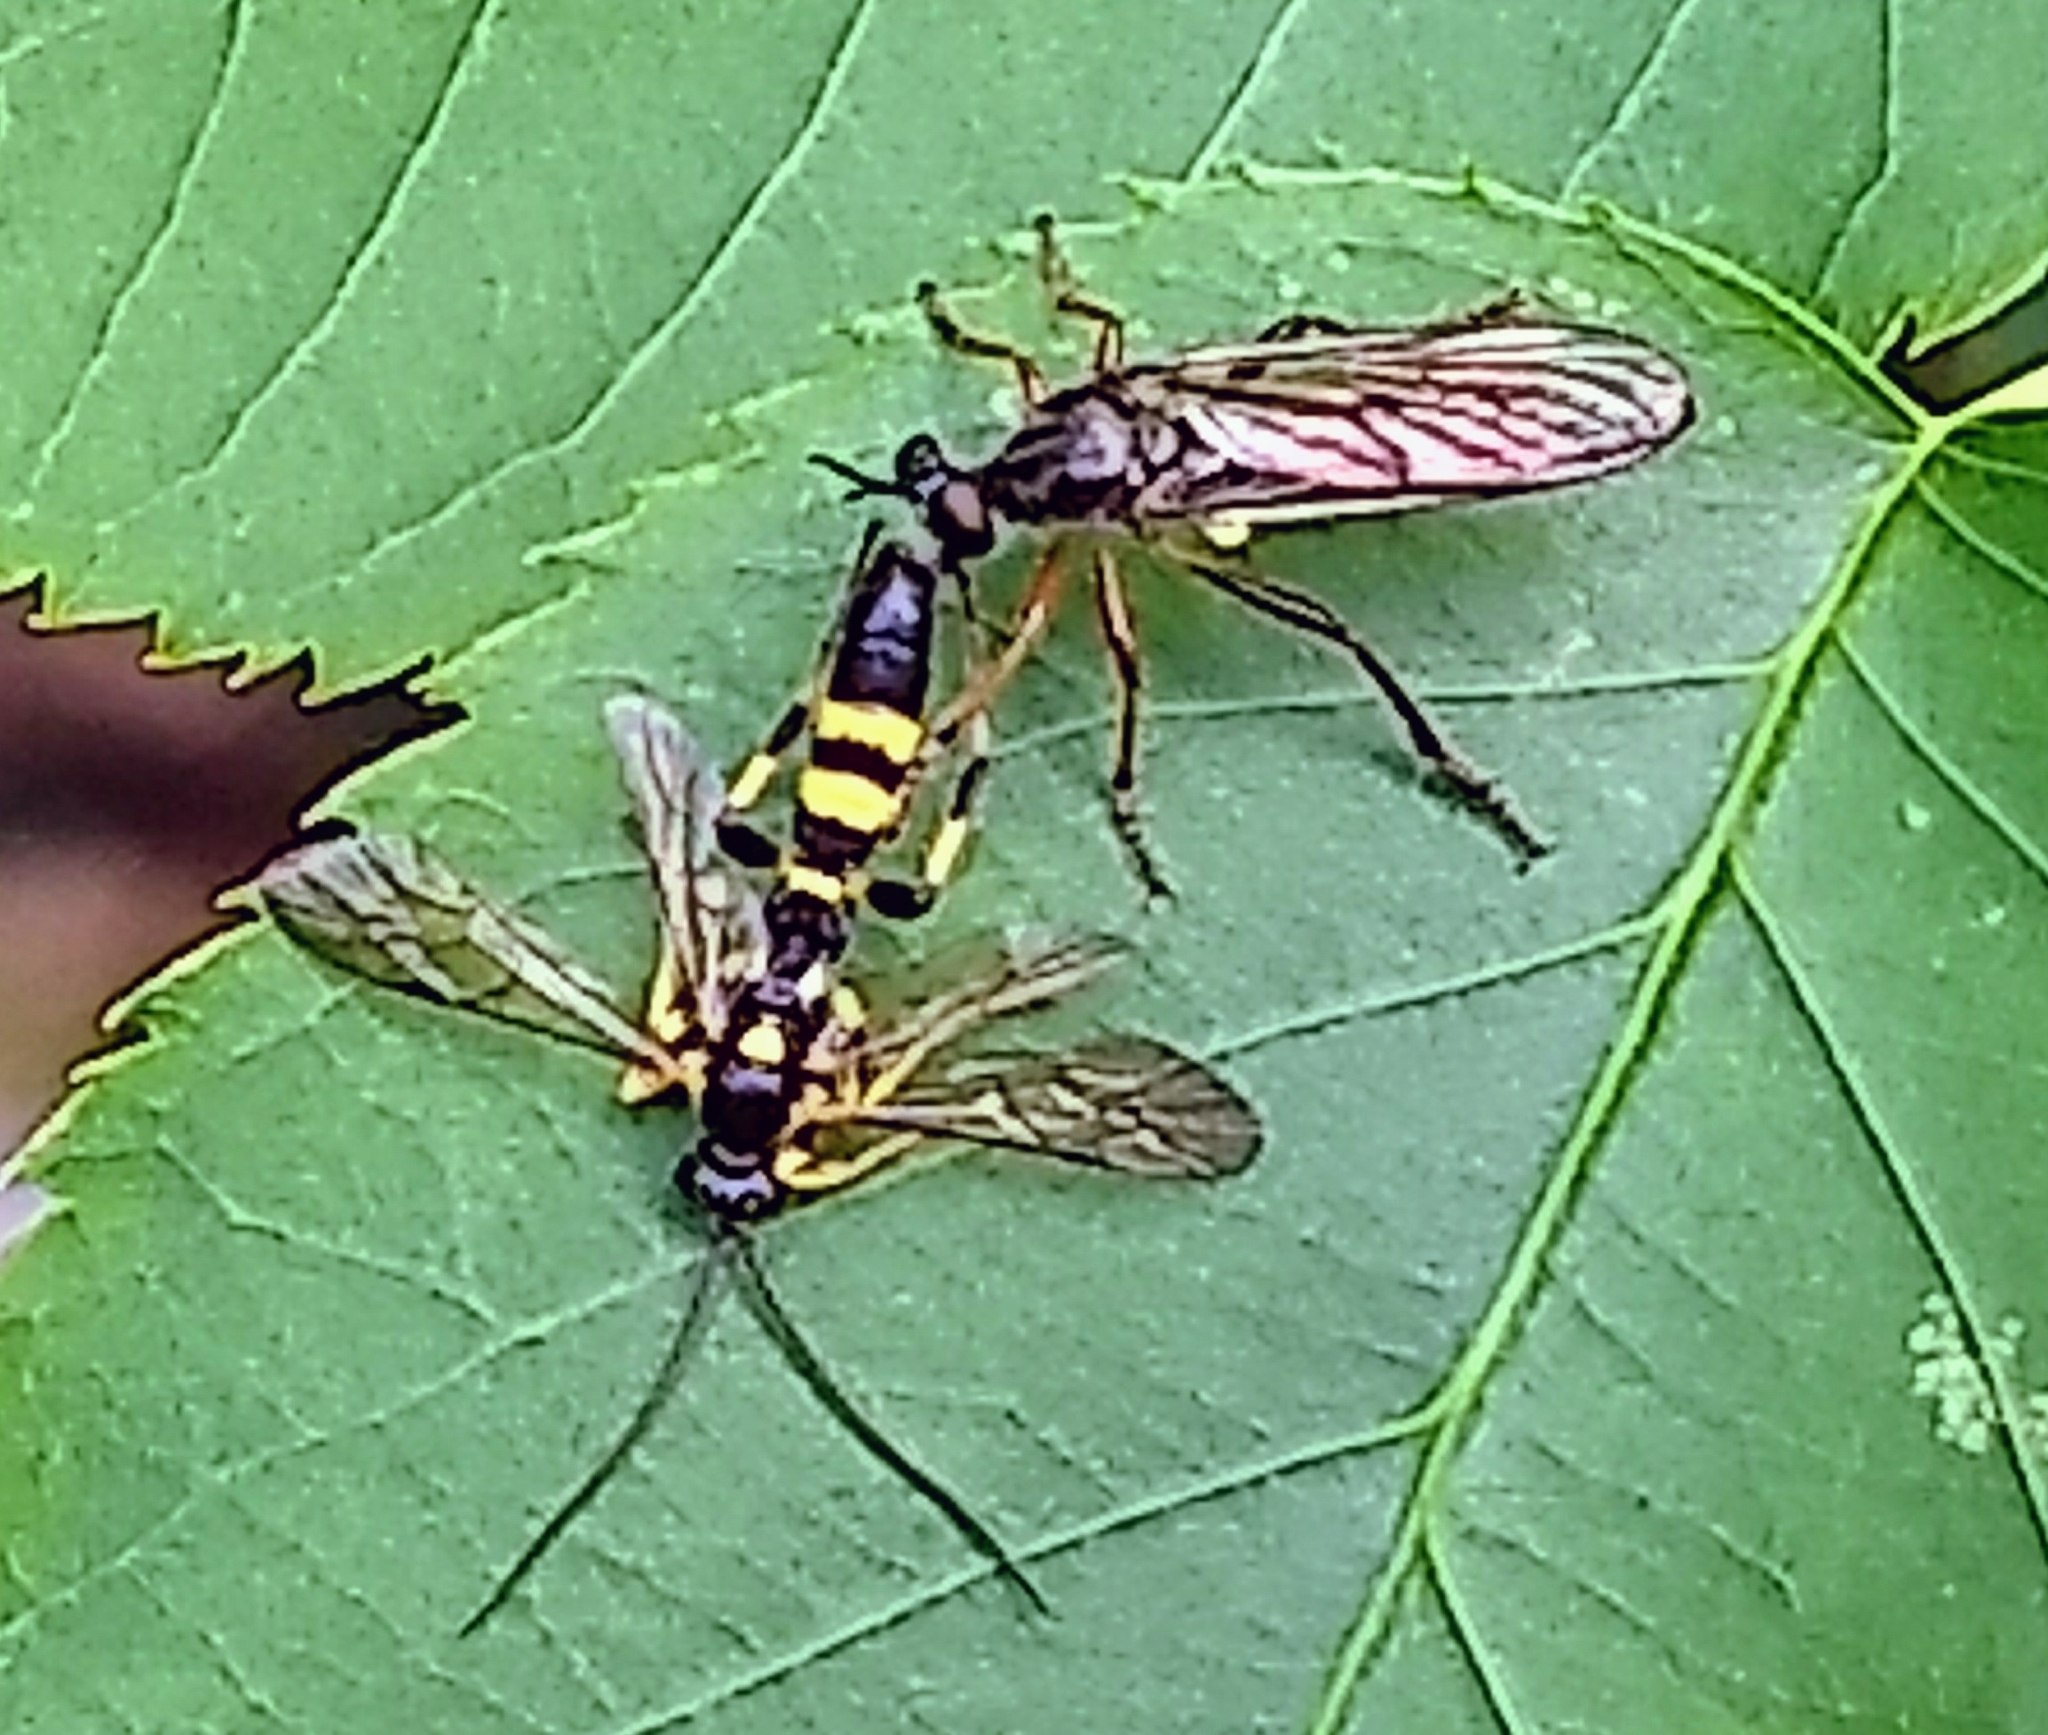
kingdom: Animalia
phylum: Arthropoda
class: Insecta
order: Diptera
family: Asilidae
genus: Dioctria
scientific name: Dioctria hyalipennis
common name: Stripe-legged robberfly
